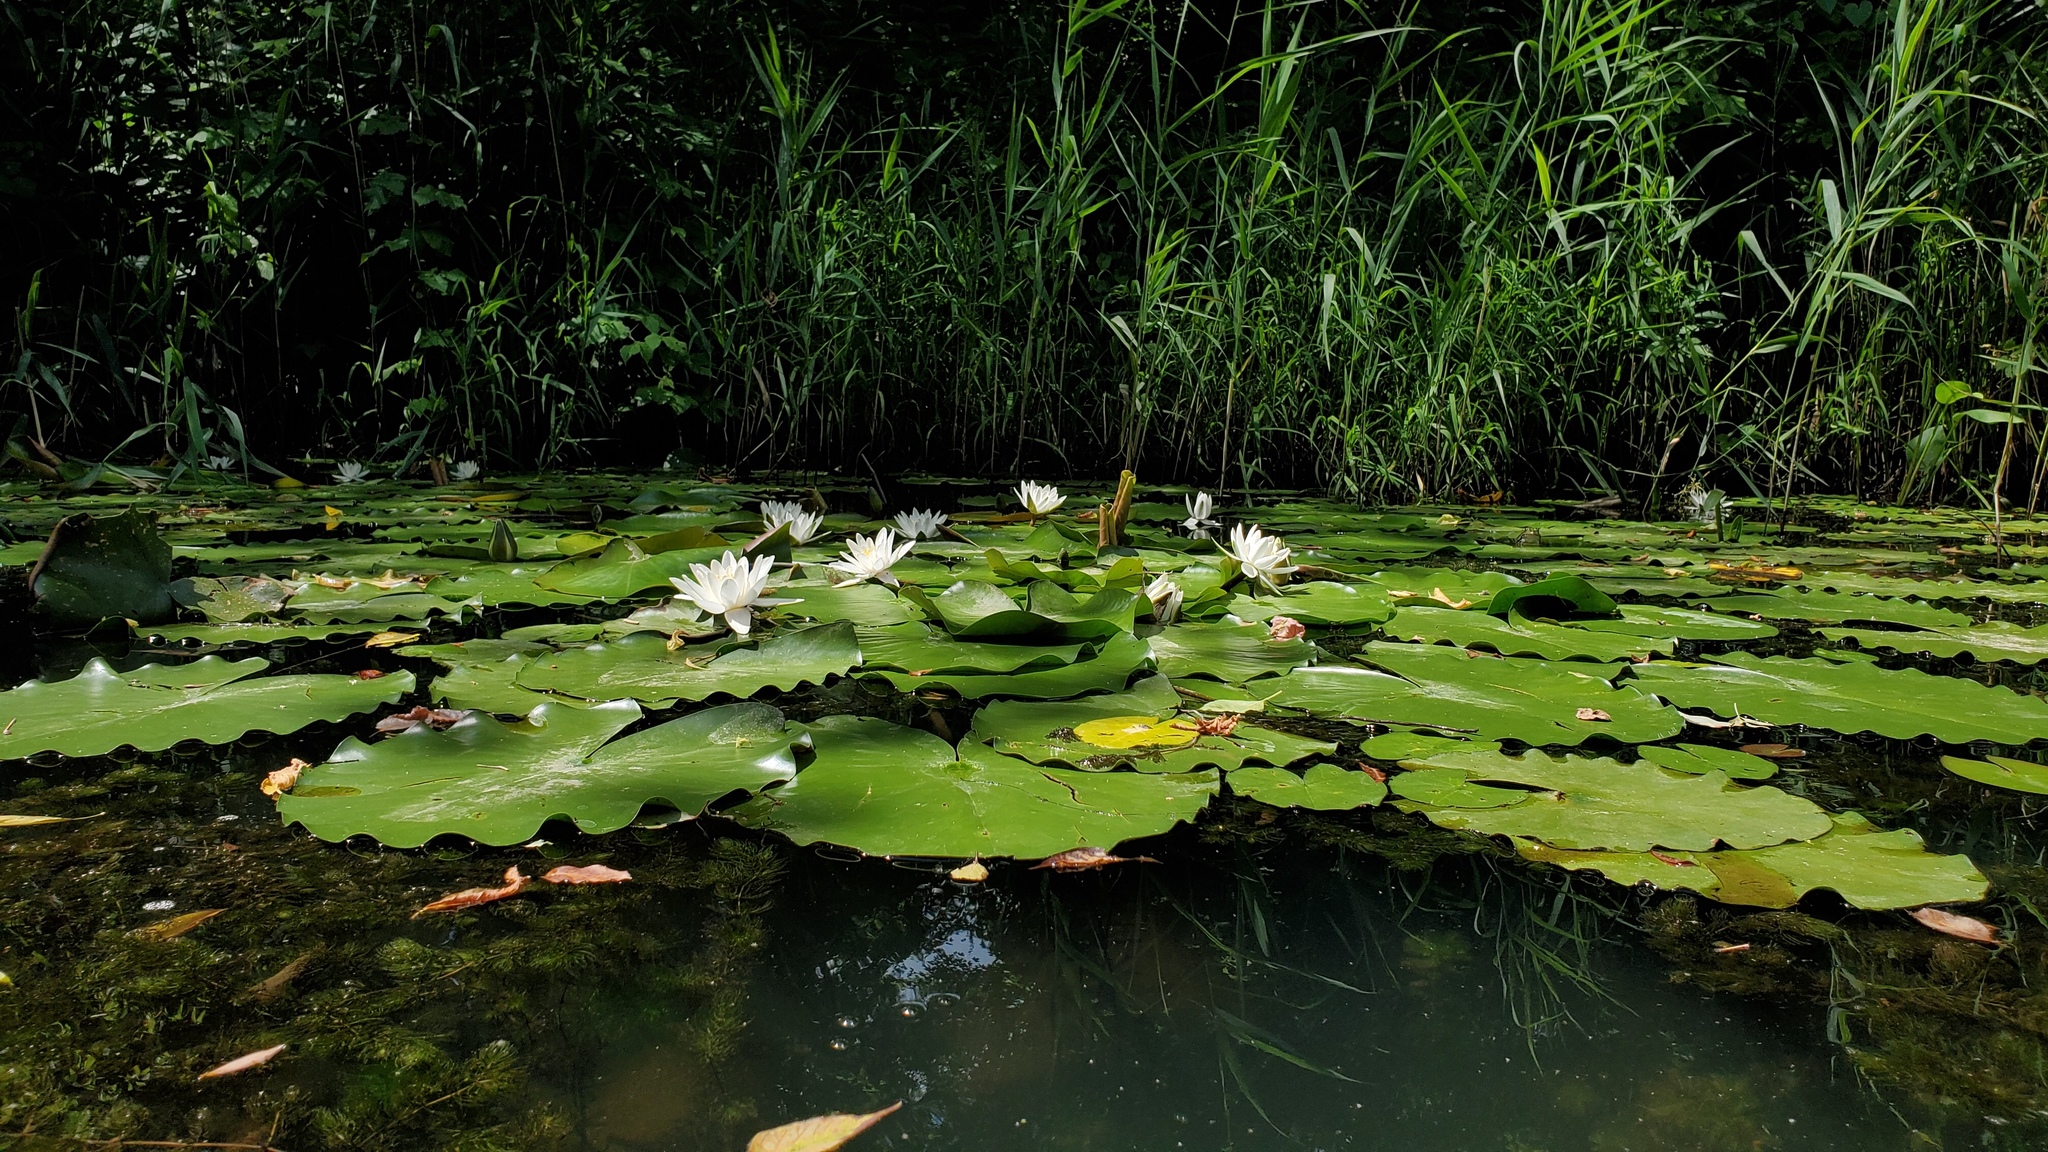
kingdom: Plantae
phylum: Tracheophyta
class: Magnoliopsida
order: Nymphaeales
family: Nymphaeaceae
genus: Nymphaea
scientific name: Nymphaea alba
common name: White water-lily
